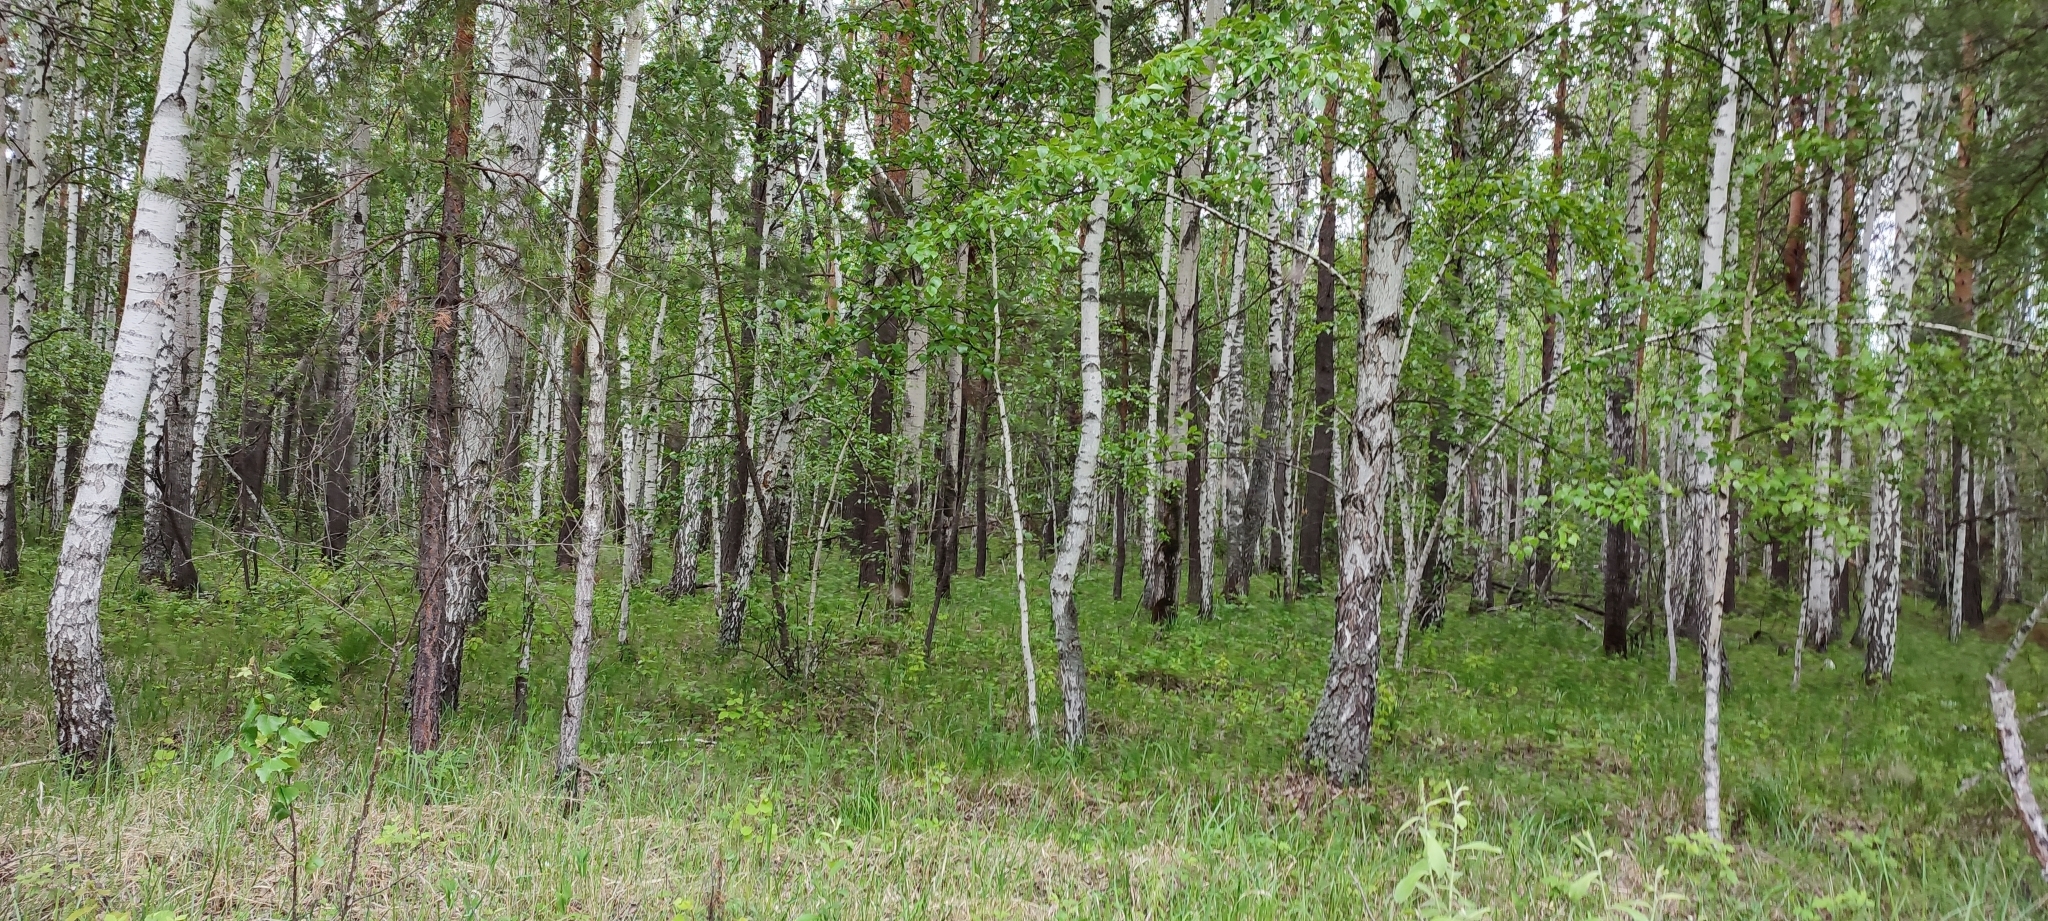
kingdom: Plantae
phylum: Tracheophyta
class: Magnoliopsida
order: Fagales
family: Betulaceae
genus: Betula
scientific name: Betula pendula
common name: Silver birch
